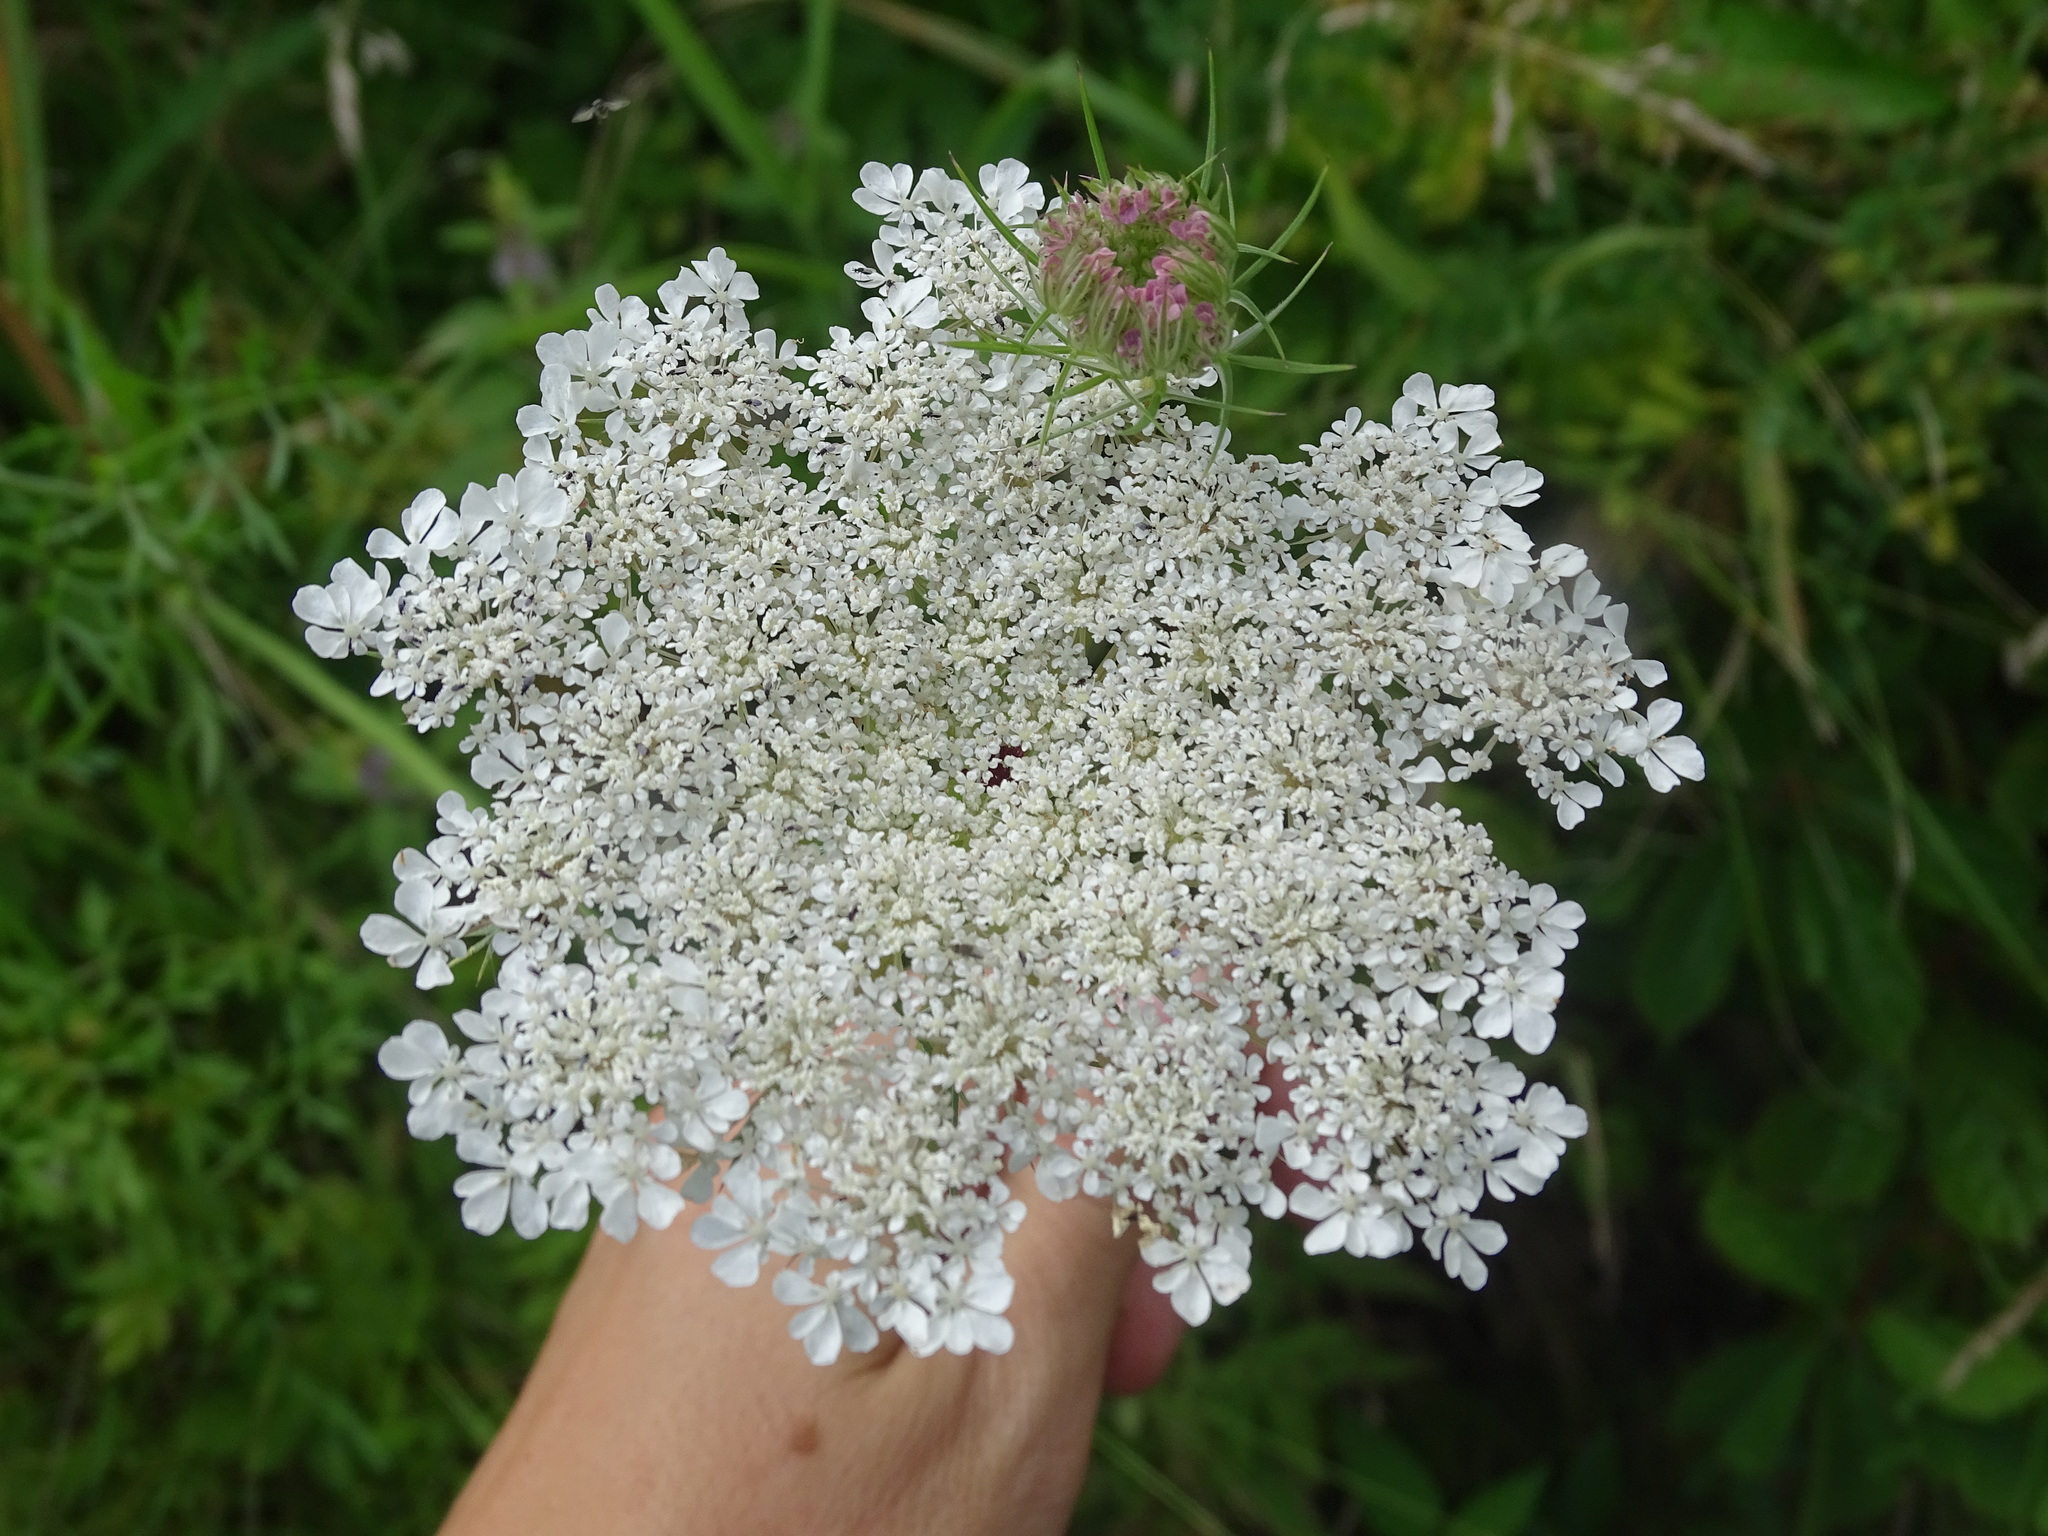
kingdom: Plantae
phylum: Tracheophyta
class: Magnoliopsida
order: Apiales
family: Apiaceae
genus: Daucus
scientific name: Daucus carota
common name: Wild carrot
